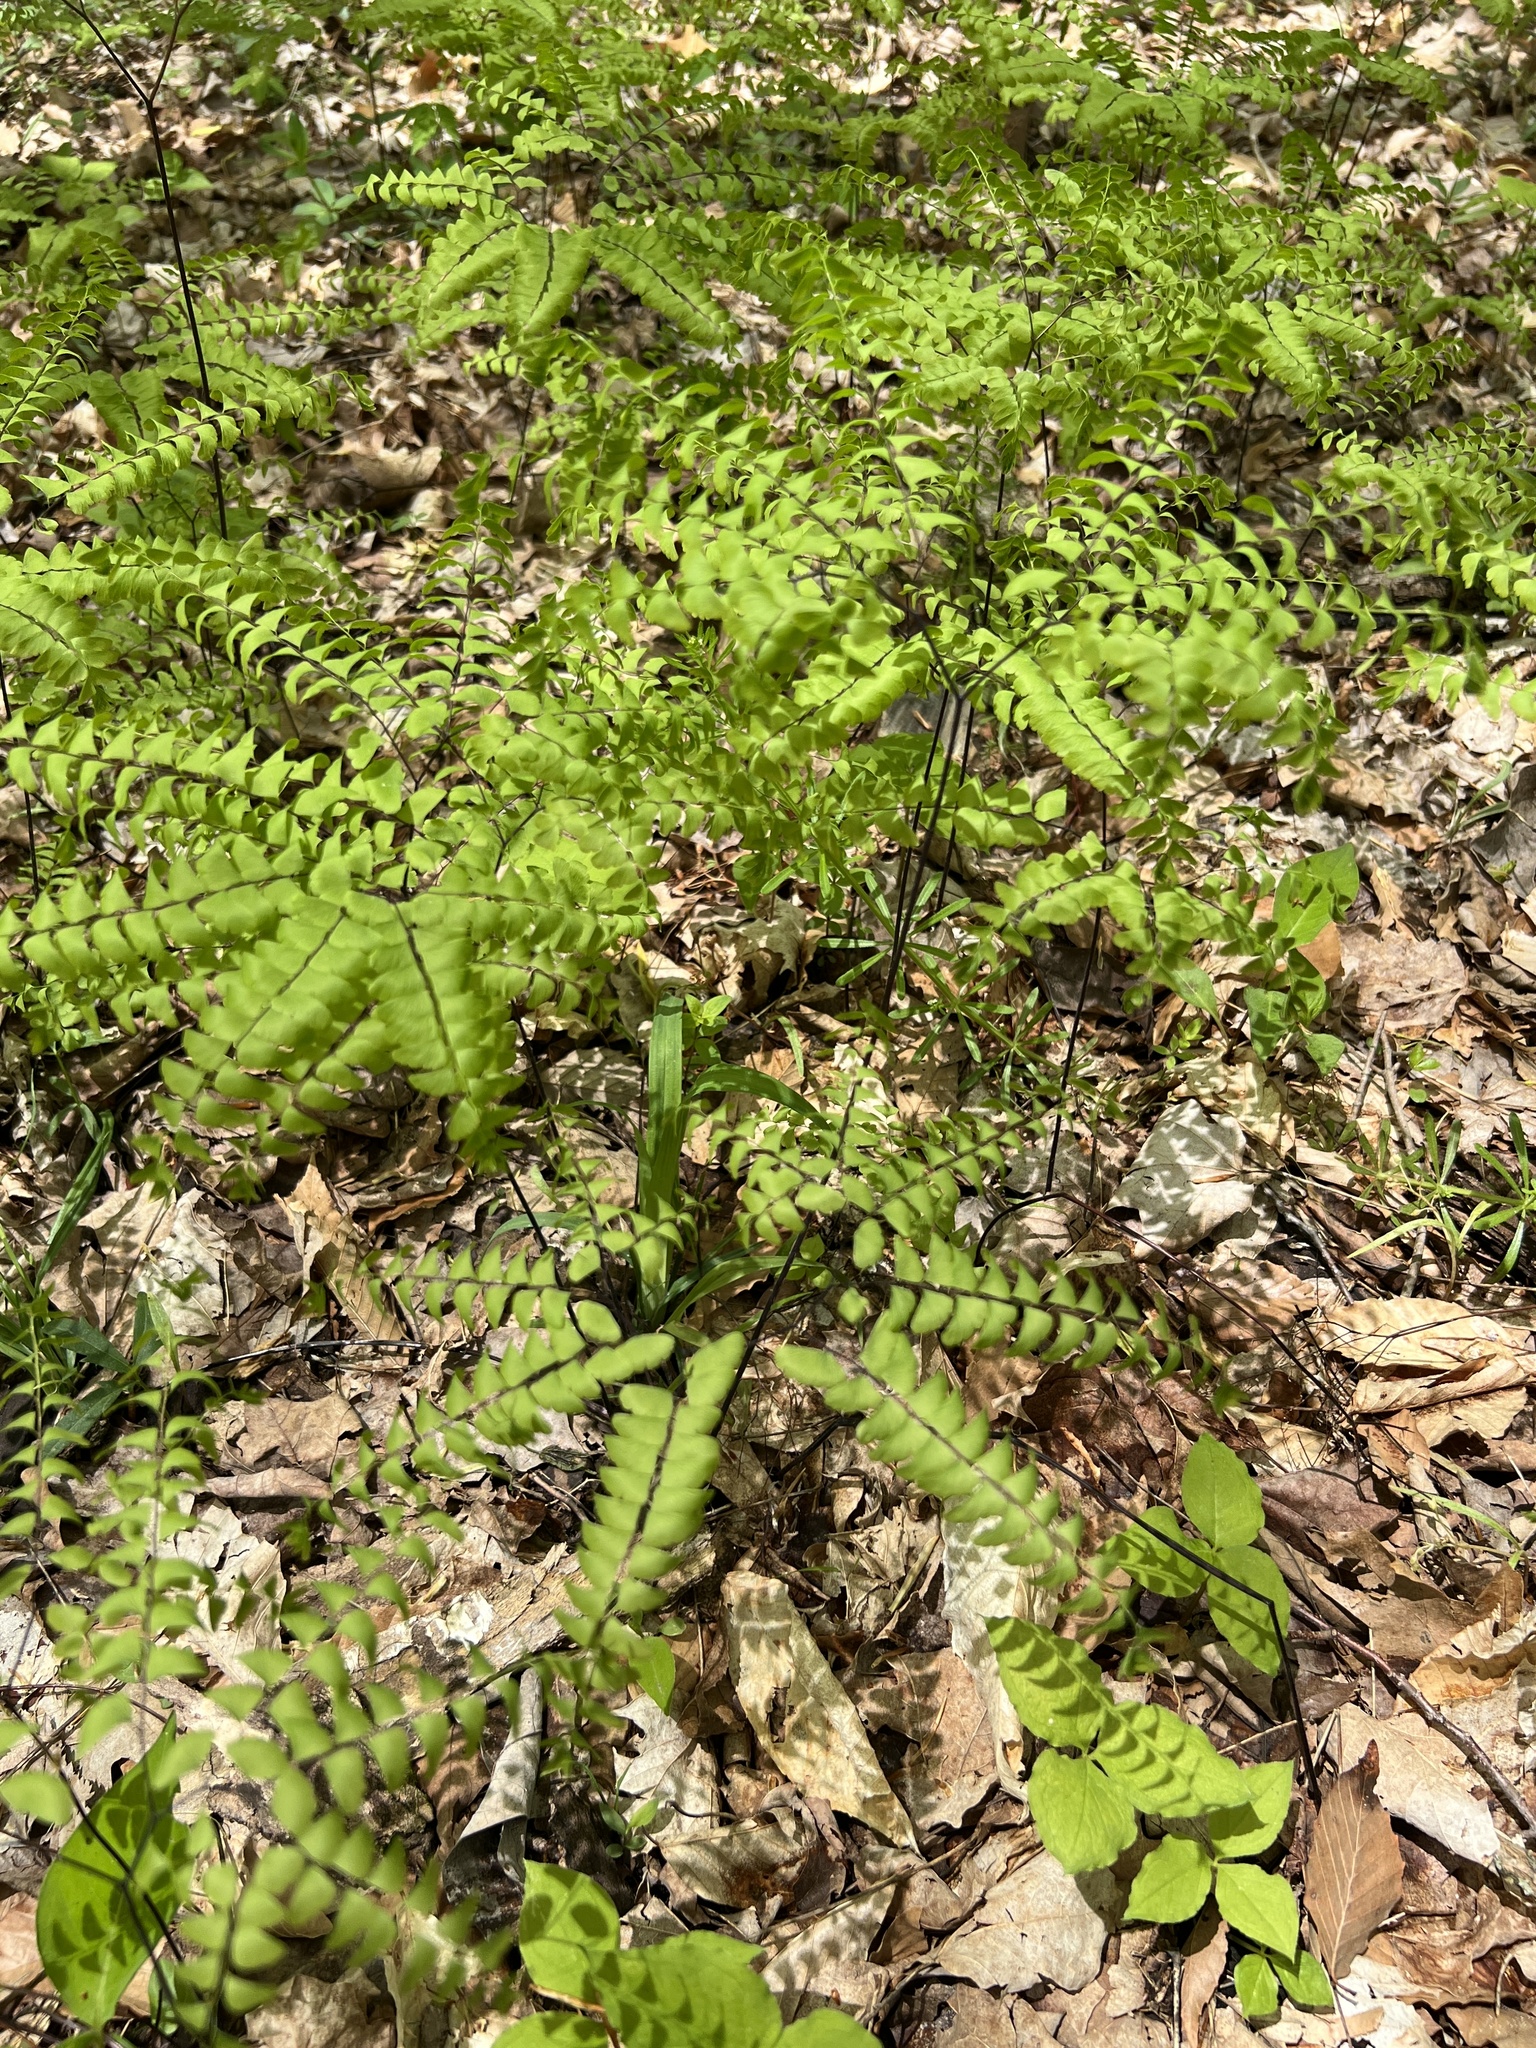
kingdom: Plantae
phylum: Tracheophyta
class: Polypodiopsida
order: Polypodiales
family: Pteridaceae
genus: Adiantum
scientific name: Adiantum pedatum
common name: Five-finger fern
